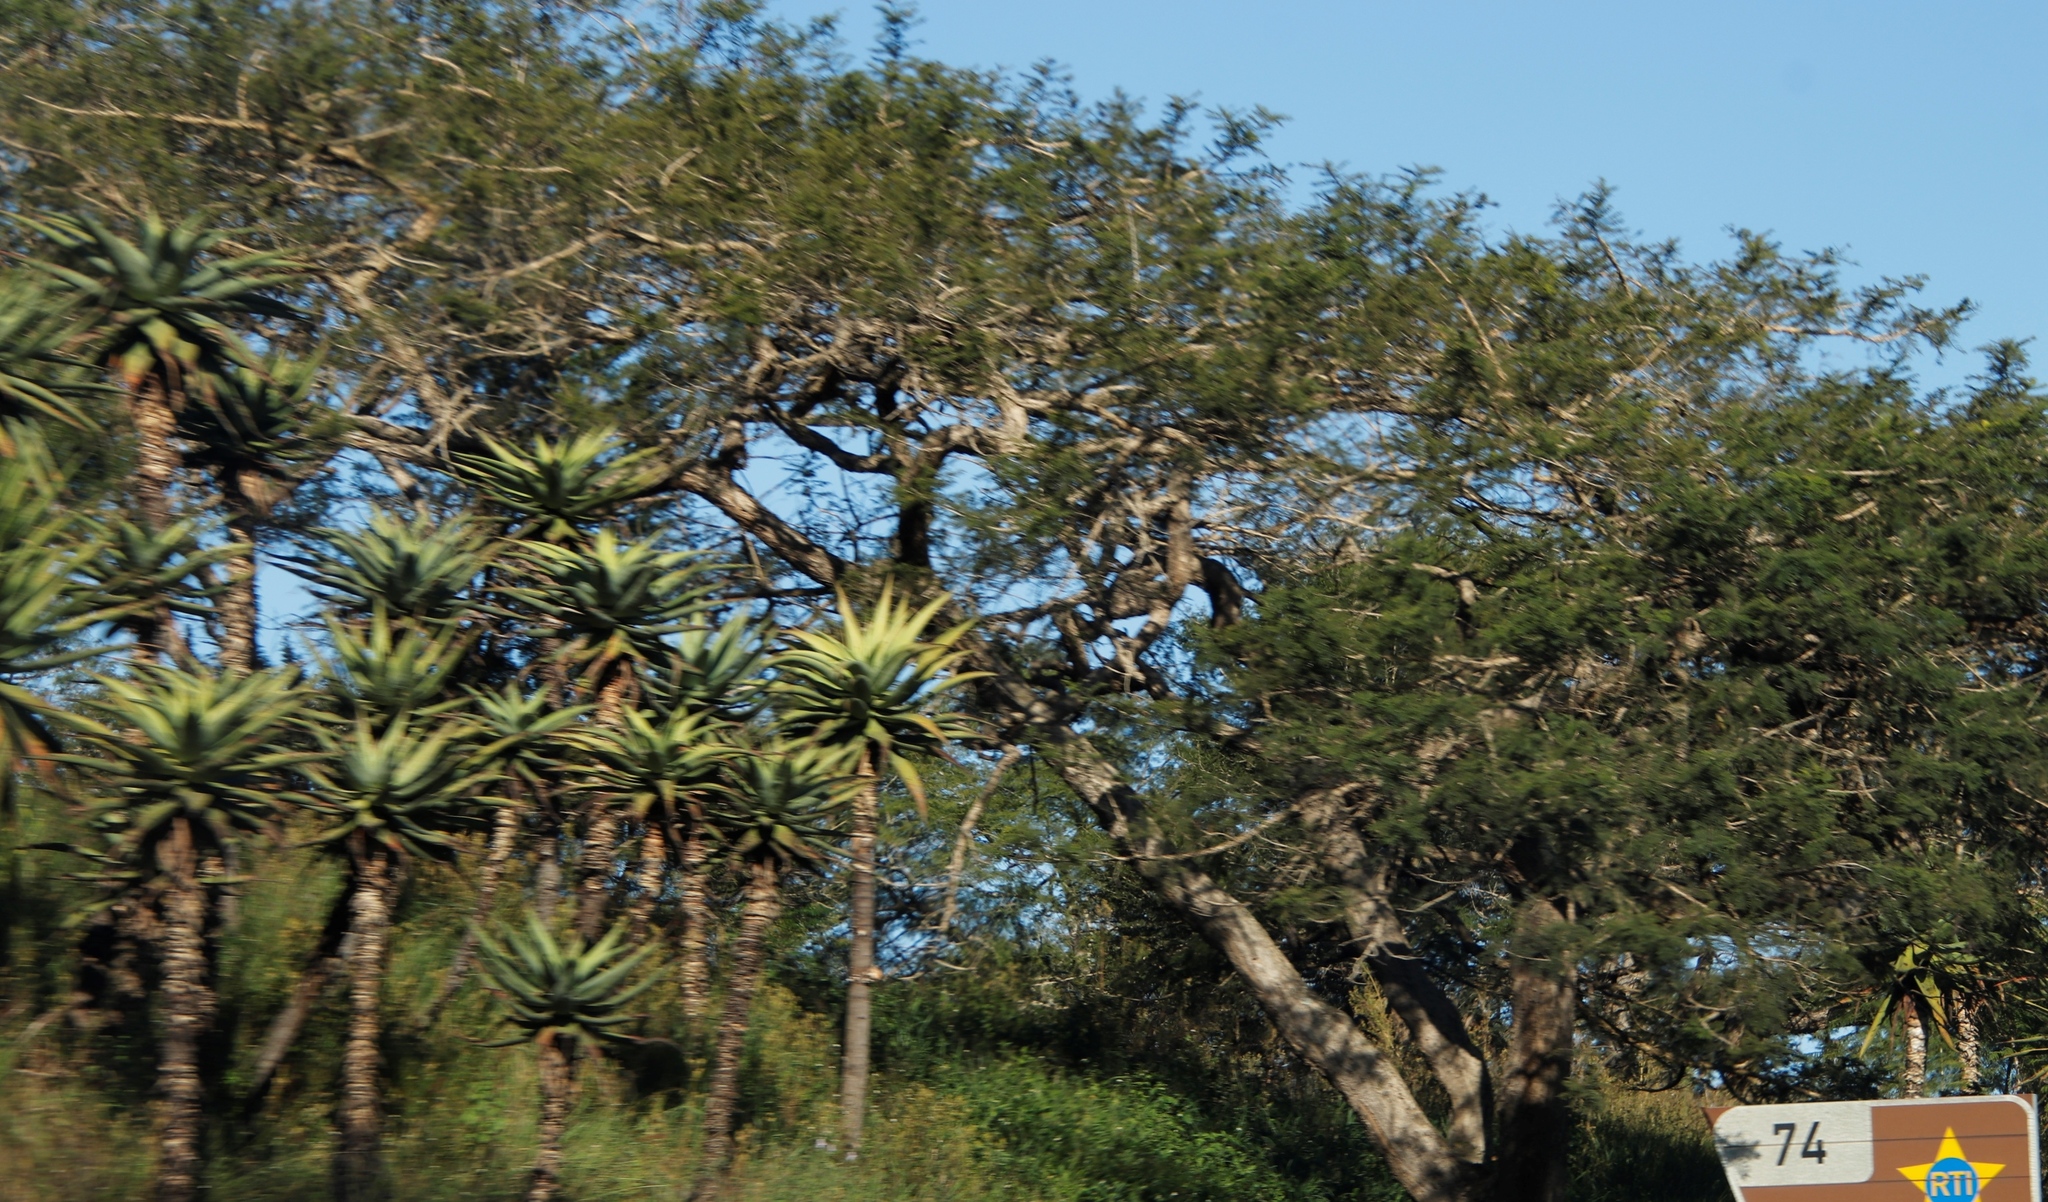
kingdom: Plantae
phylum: Tracheophyta
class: Magnoliopsida
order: Fabales
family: Fabaceae
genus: Vachellia
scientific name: Vachellia sieberiana
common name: Flat-topped thorn
